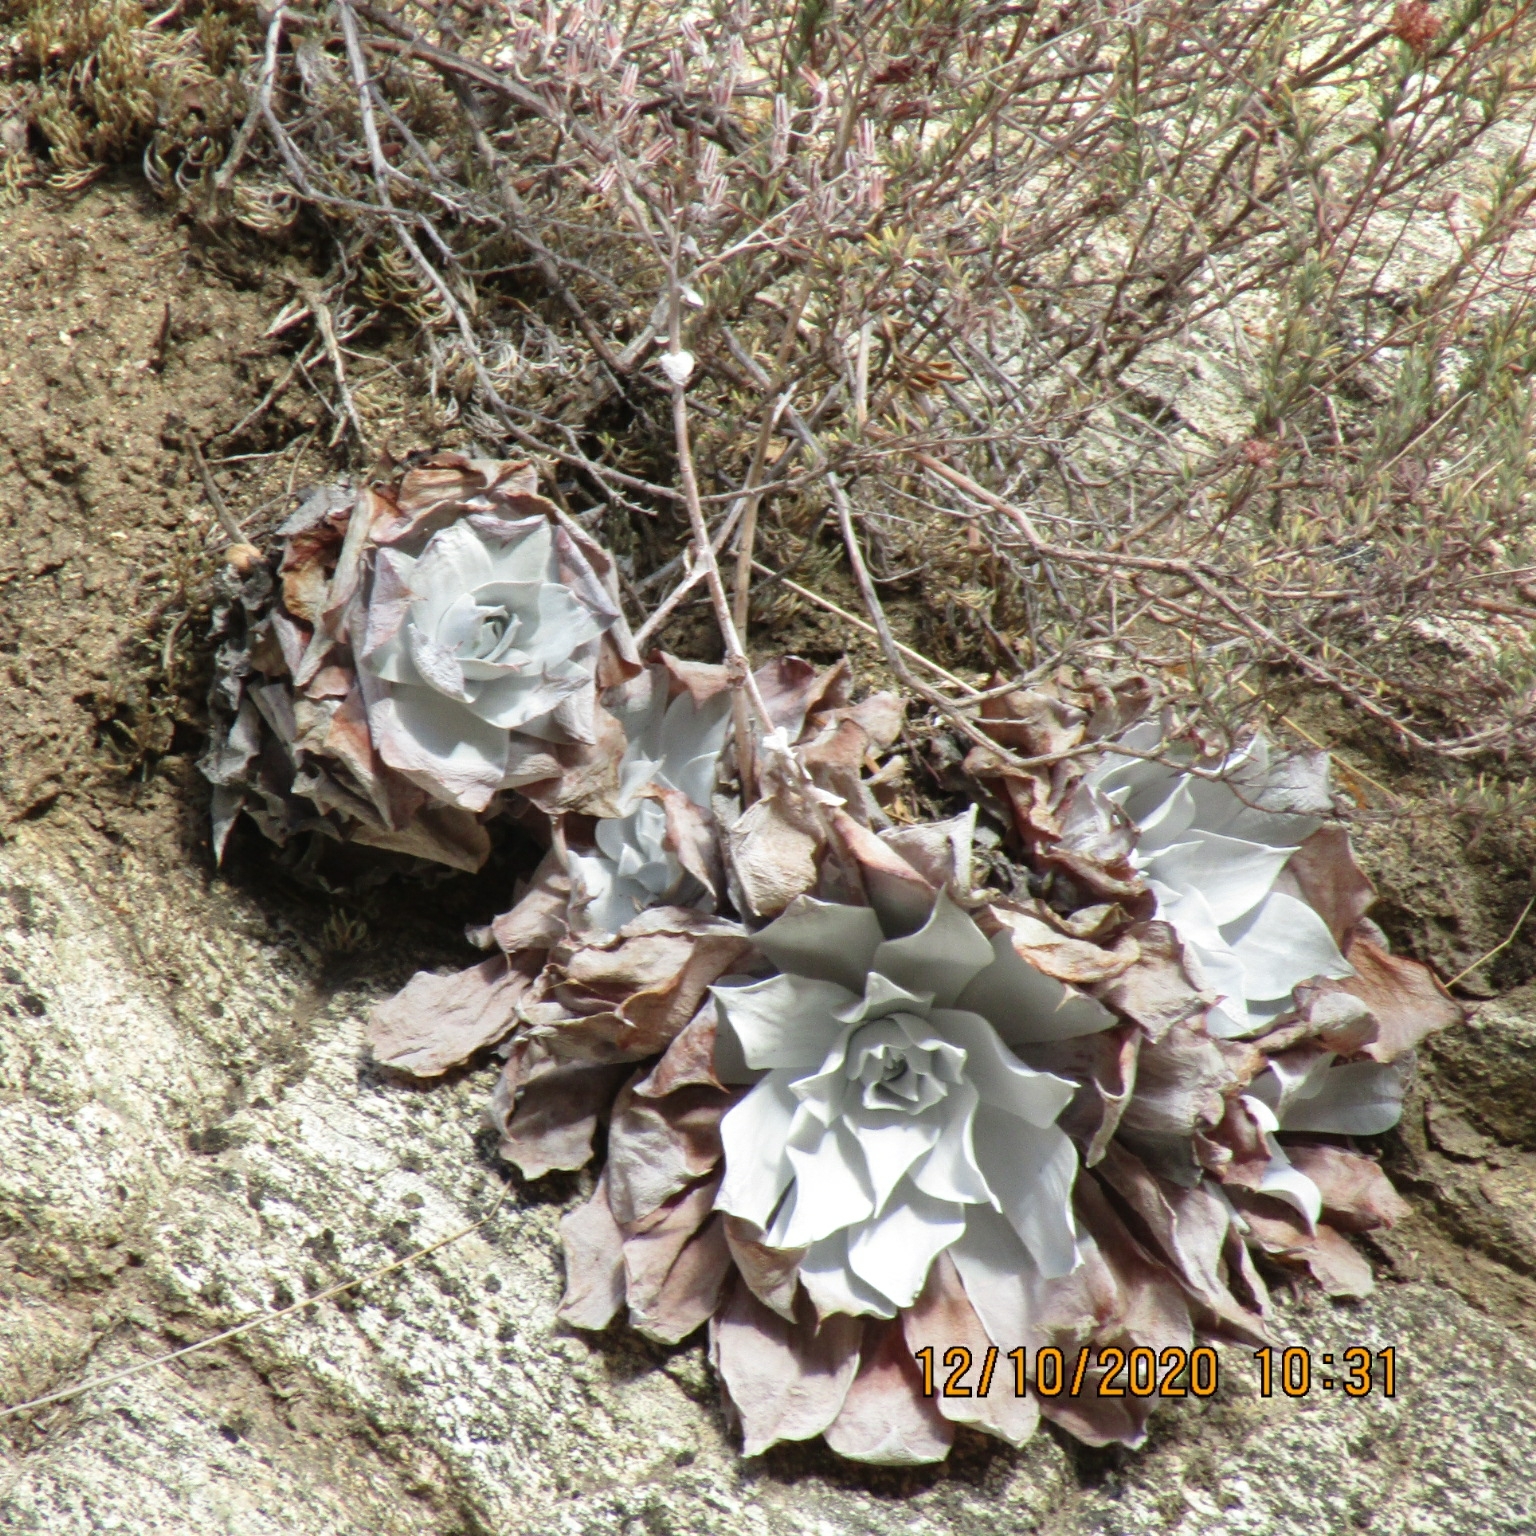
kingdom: Plantae
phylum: Tracheophyta
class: Magnoliopsida
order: Saxifragales
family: Crassulaceae
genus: Dudleya
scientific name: Dudleya pulverulenta
